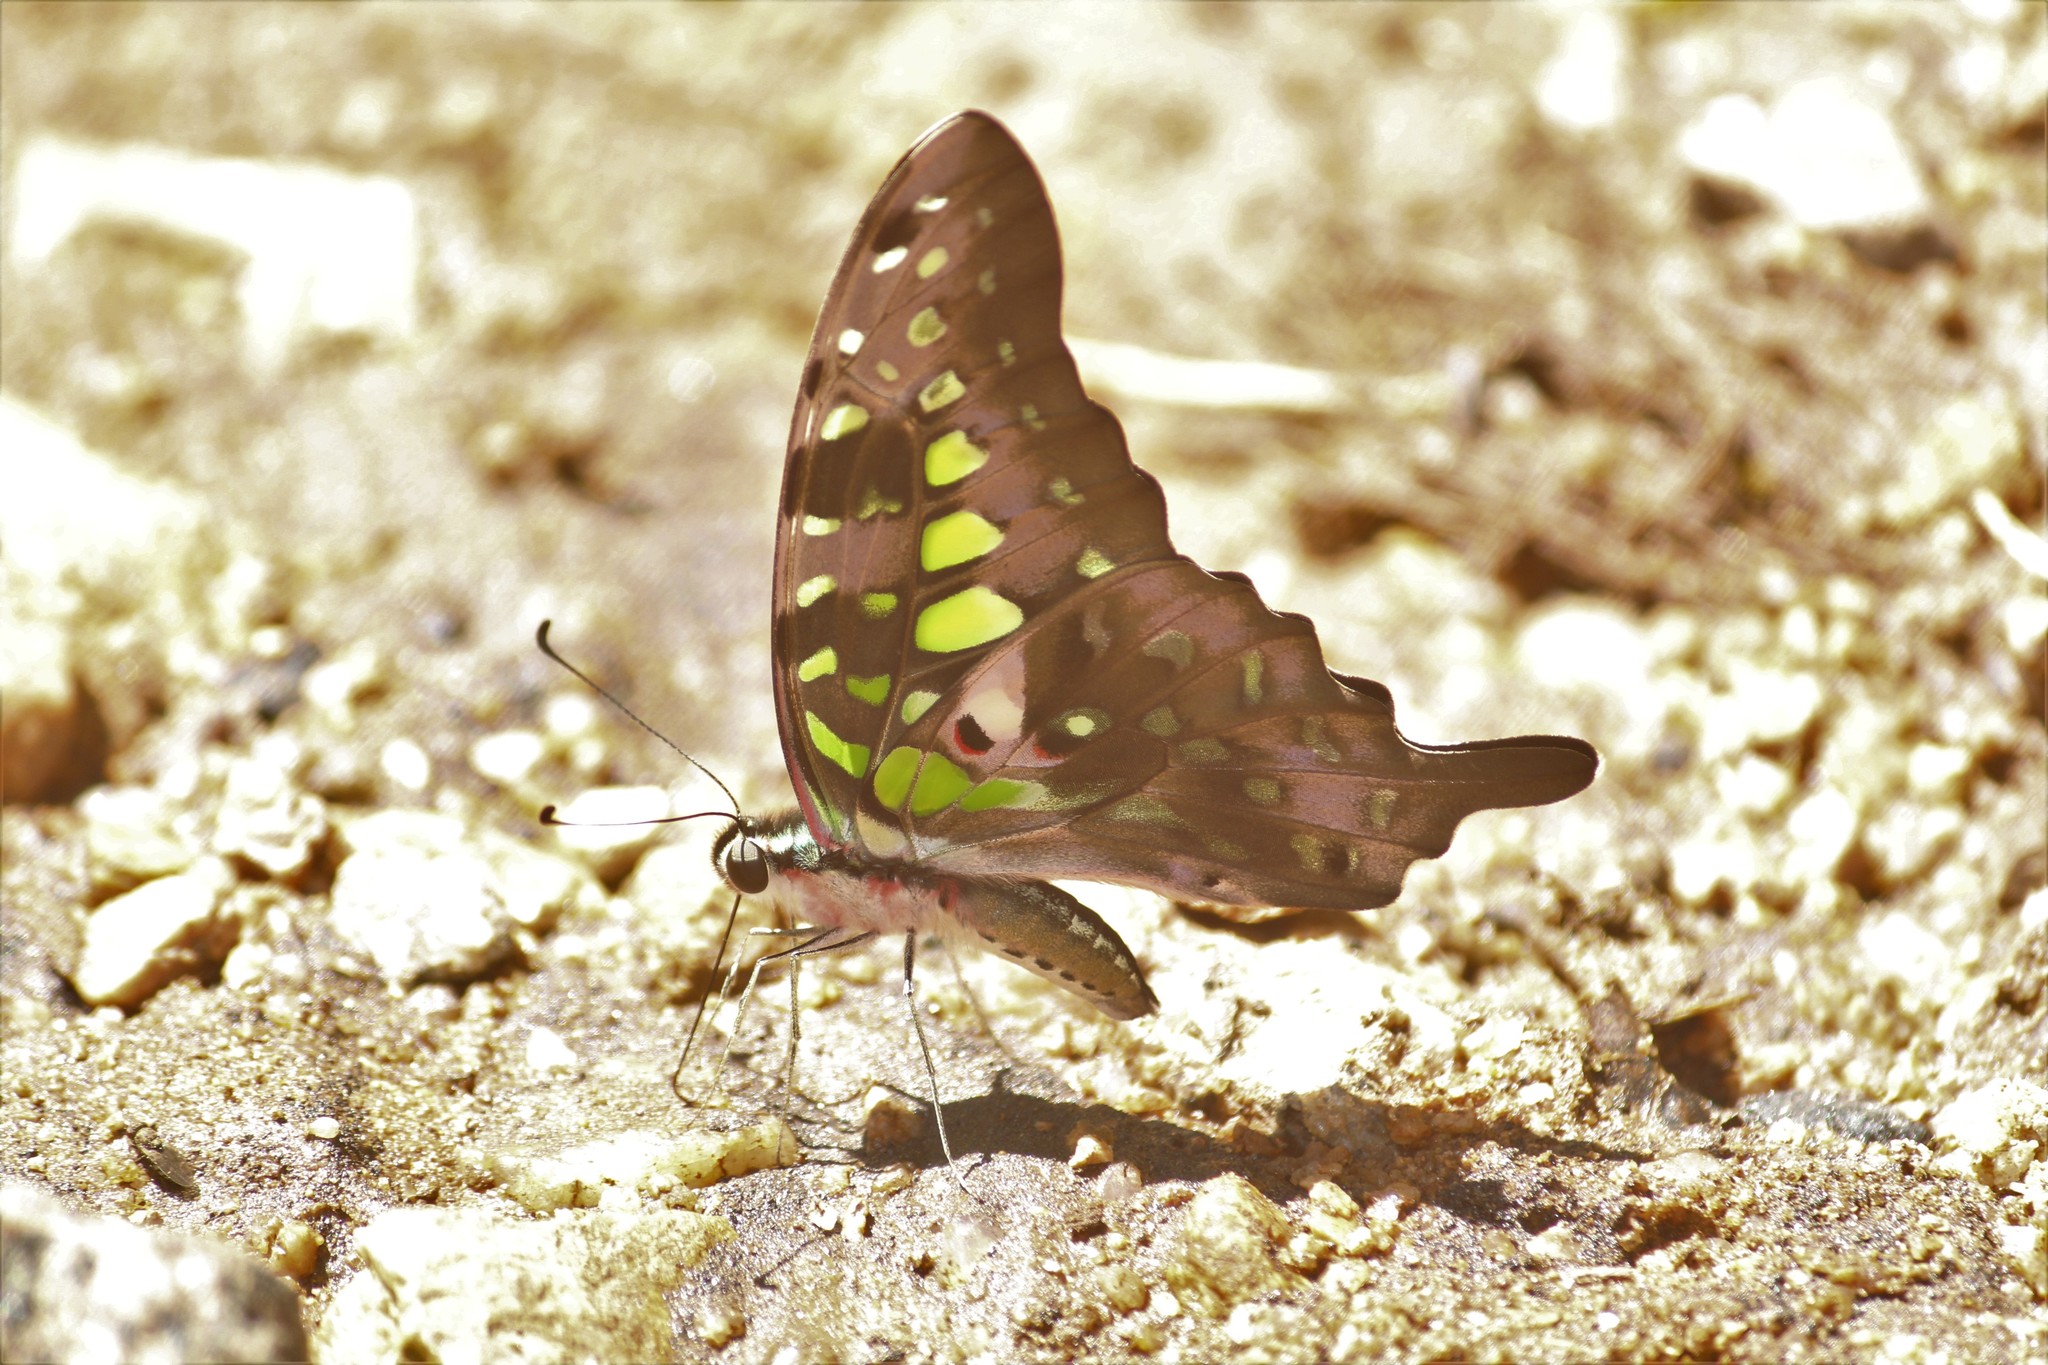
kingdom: Animalia
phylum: Arthropoda
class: Insecta
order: Lepidoptera
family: Papilionidae
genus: Graphium
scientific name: Graphium agamemnon
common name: Tailed jay
